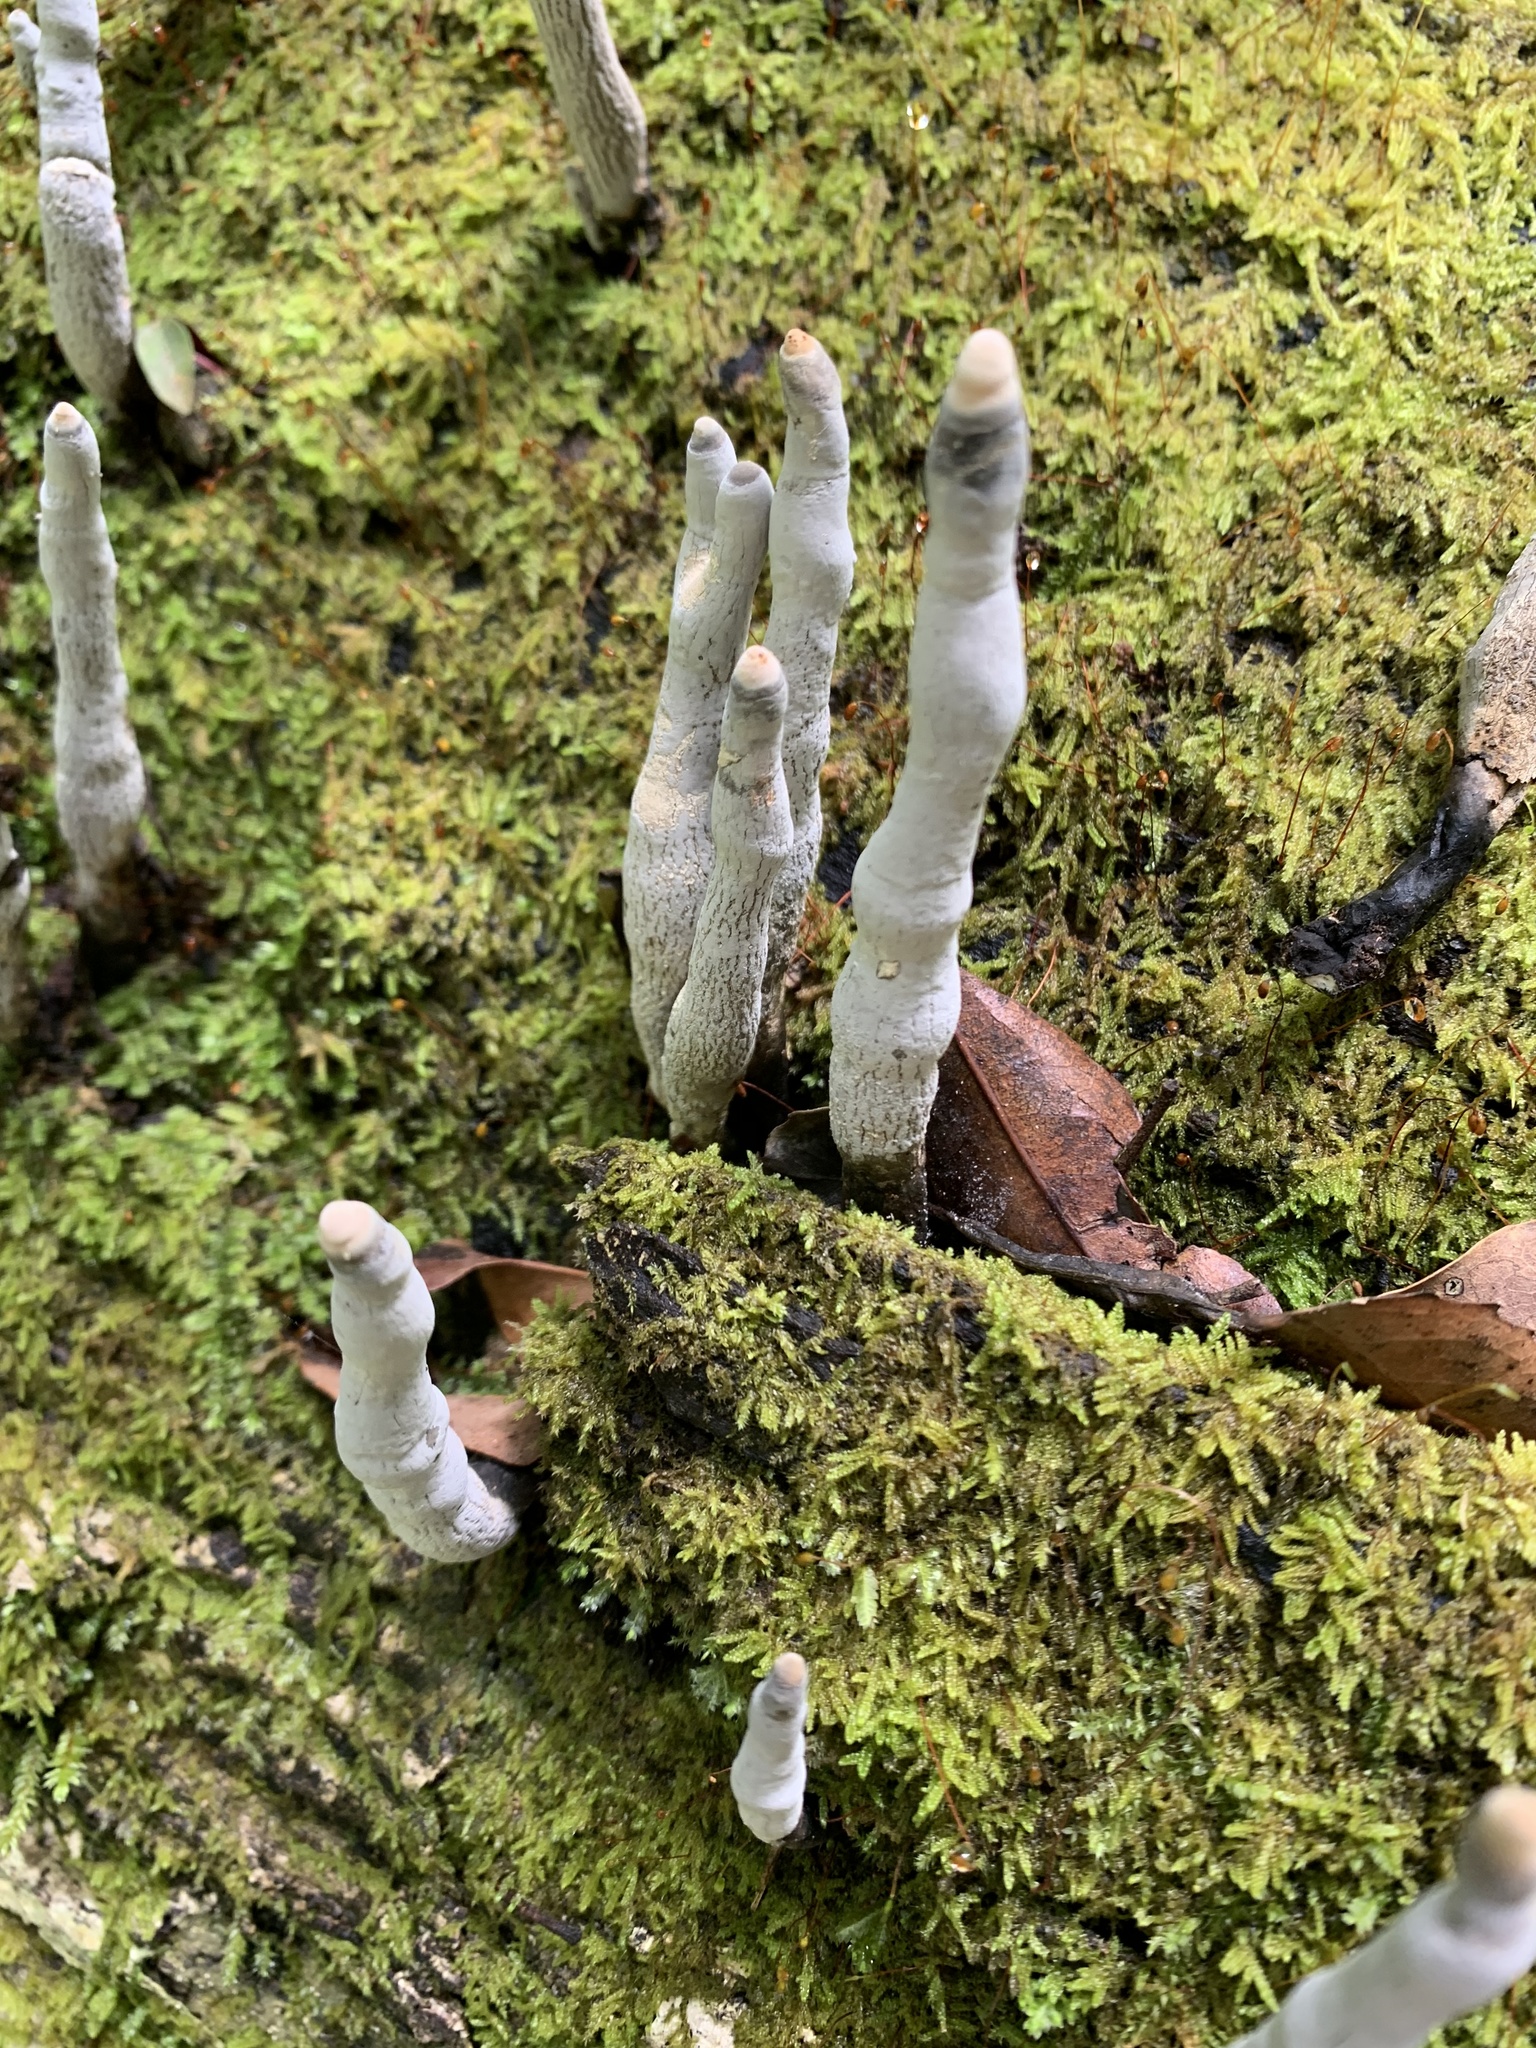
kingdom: Fungi
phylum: Ascomycota
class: Sordariomycetes
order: Xylariales
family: Xylariaceae
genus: Xylaria
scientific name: Xylaria polymorpha
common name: Dead man's fingers
